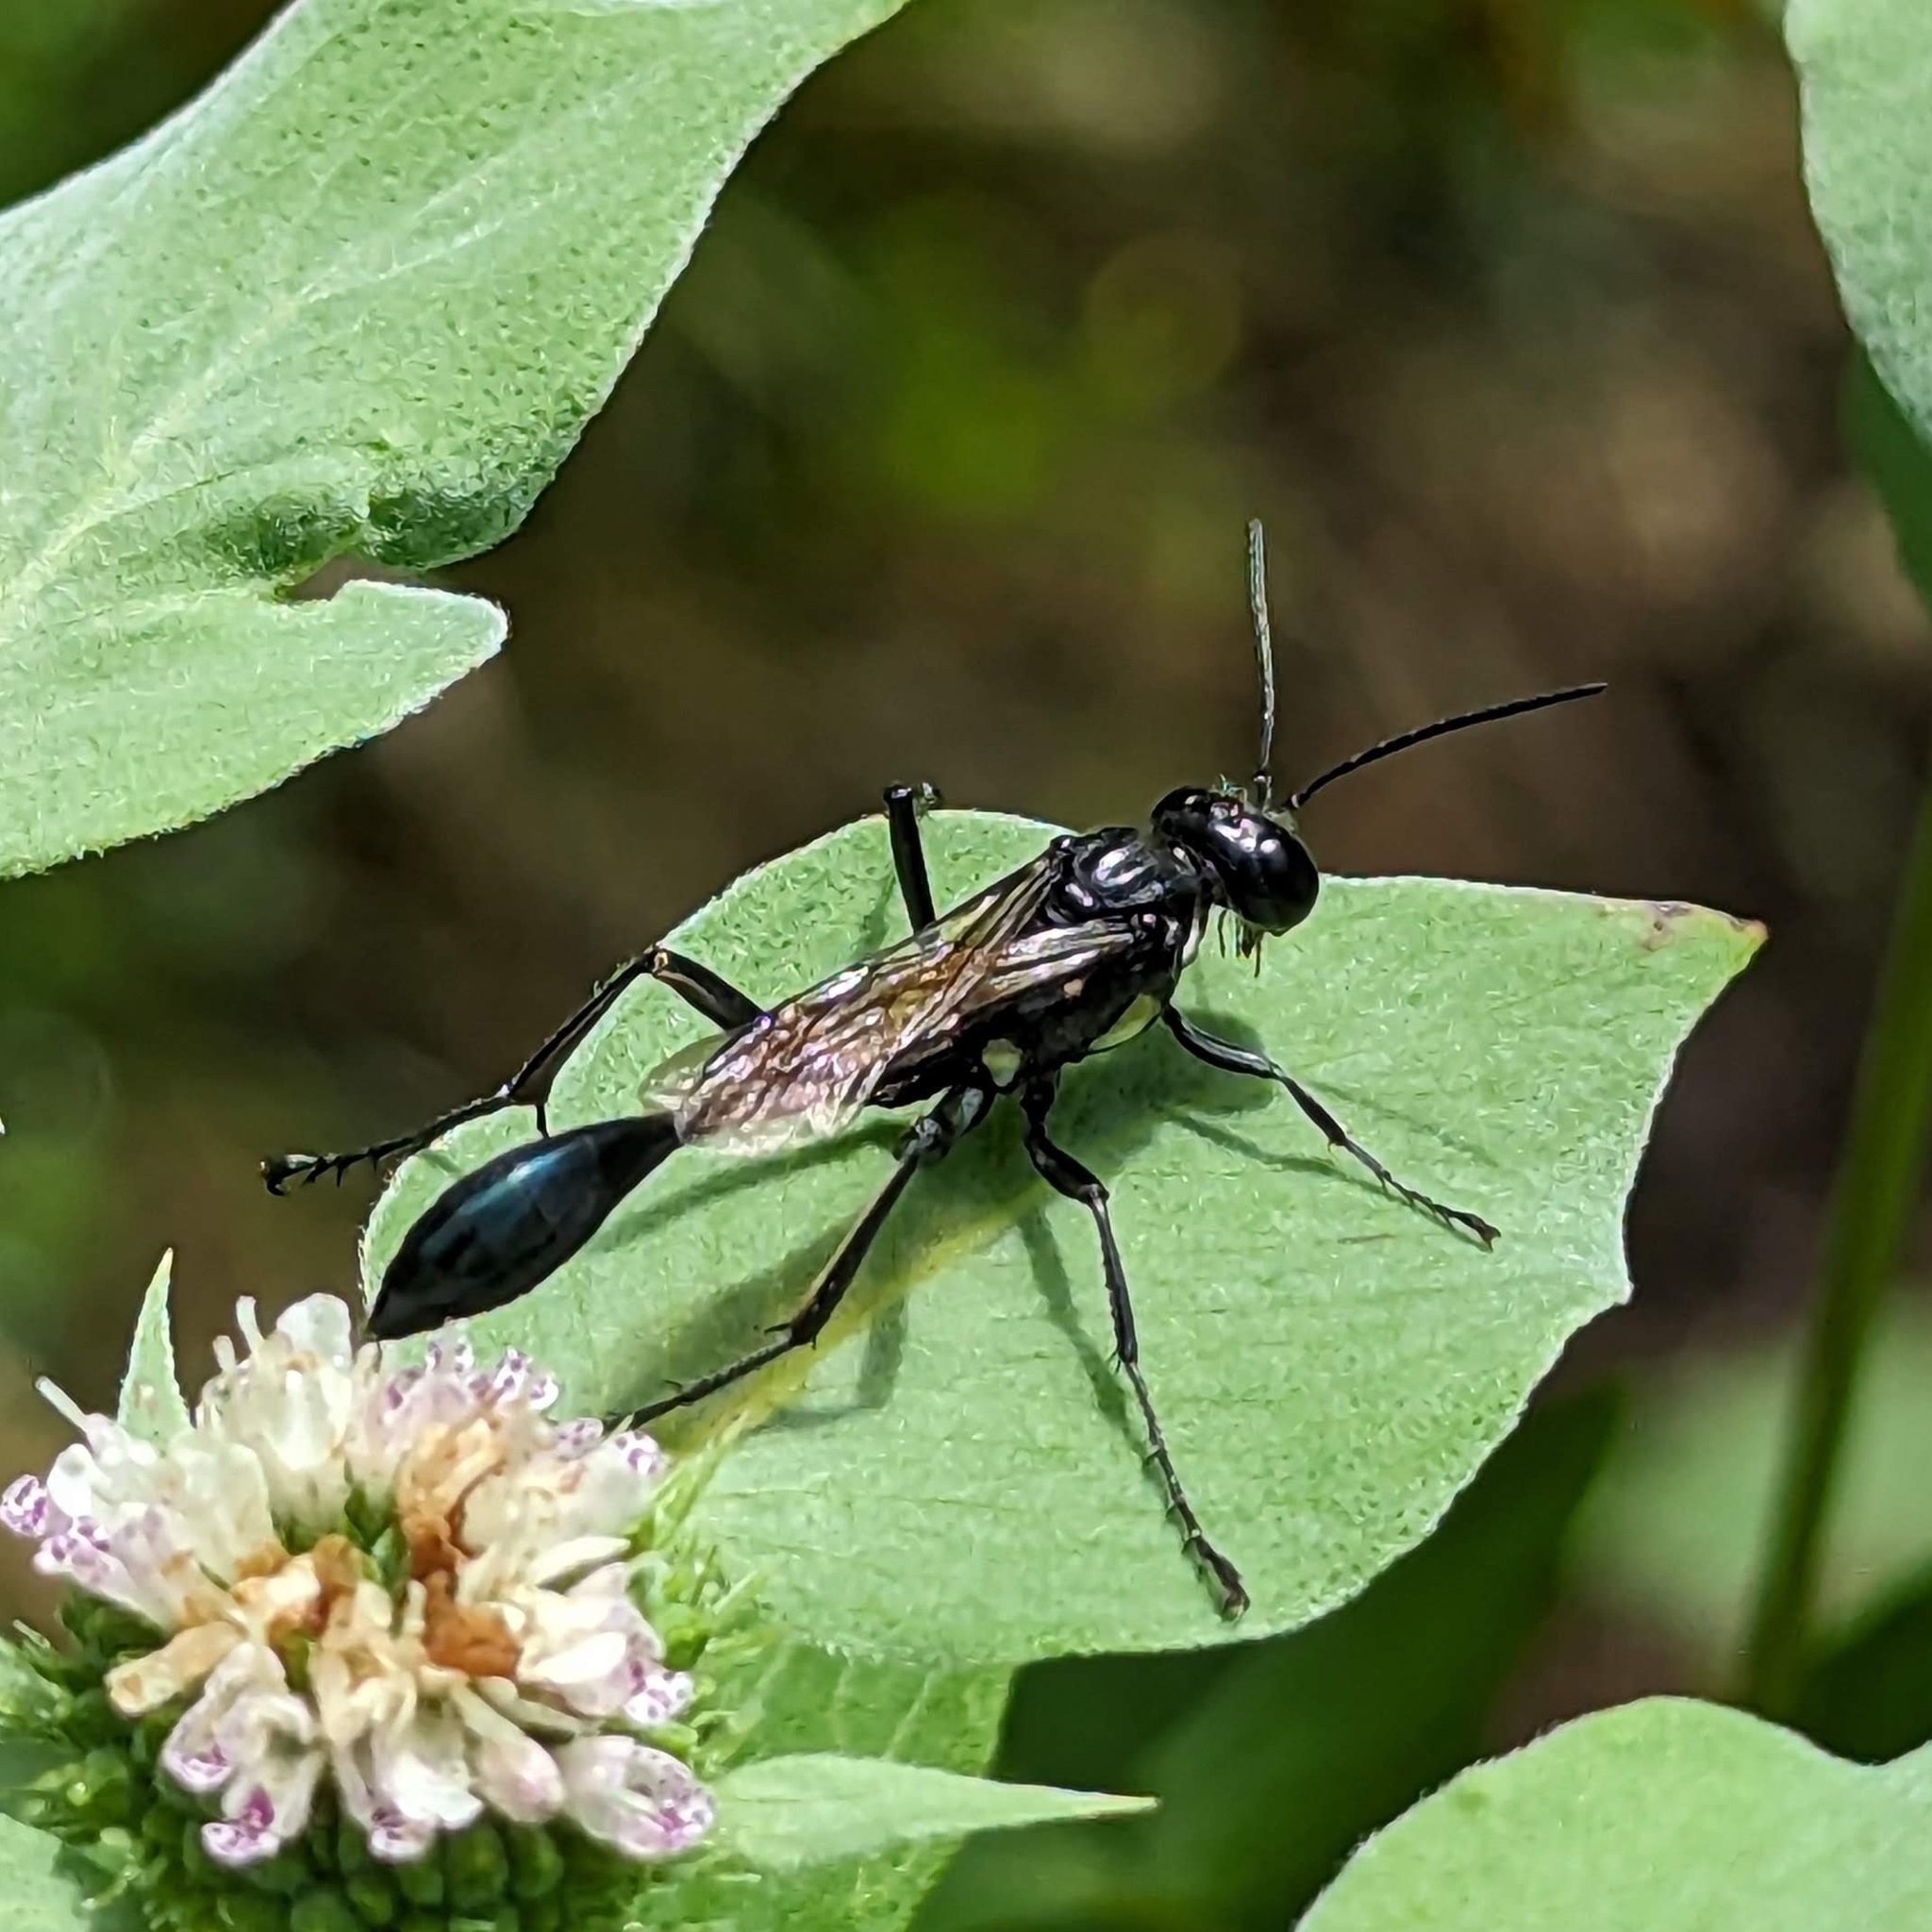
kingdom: Animalia
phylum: Arthropoda
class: Insecta
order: Hymenoptera
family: Sphecidae
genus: Eremnophila
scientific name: Eremnophila aureonotata
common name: Gold-marked thread-waisted wasp
